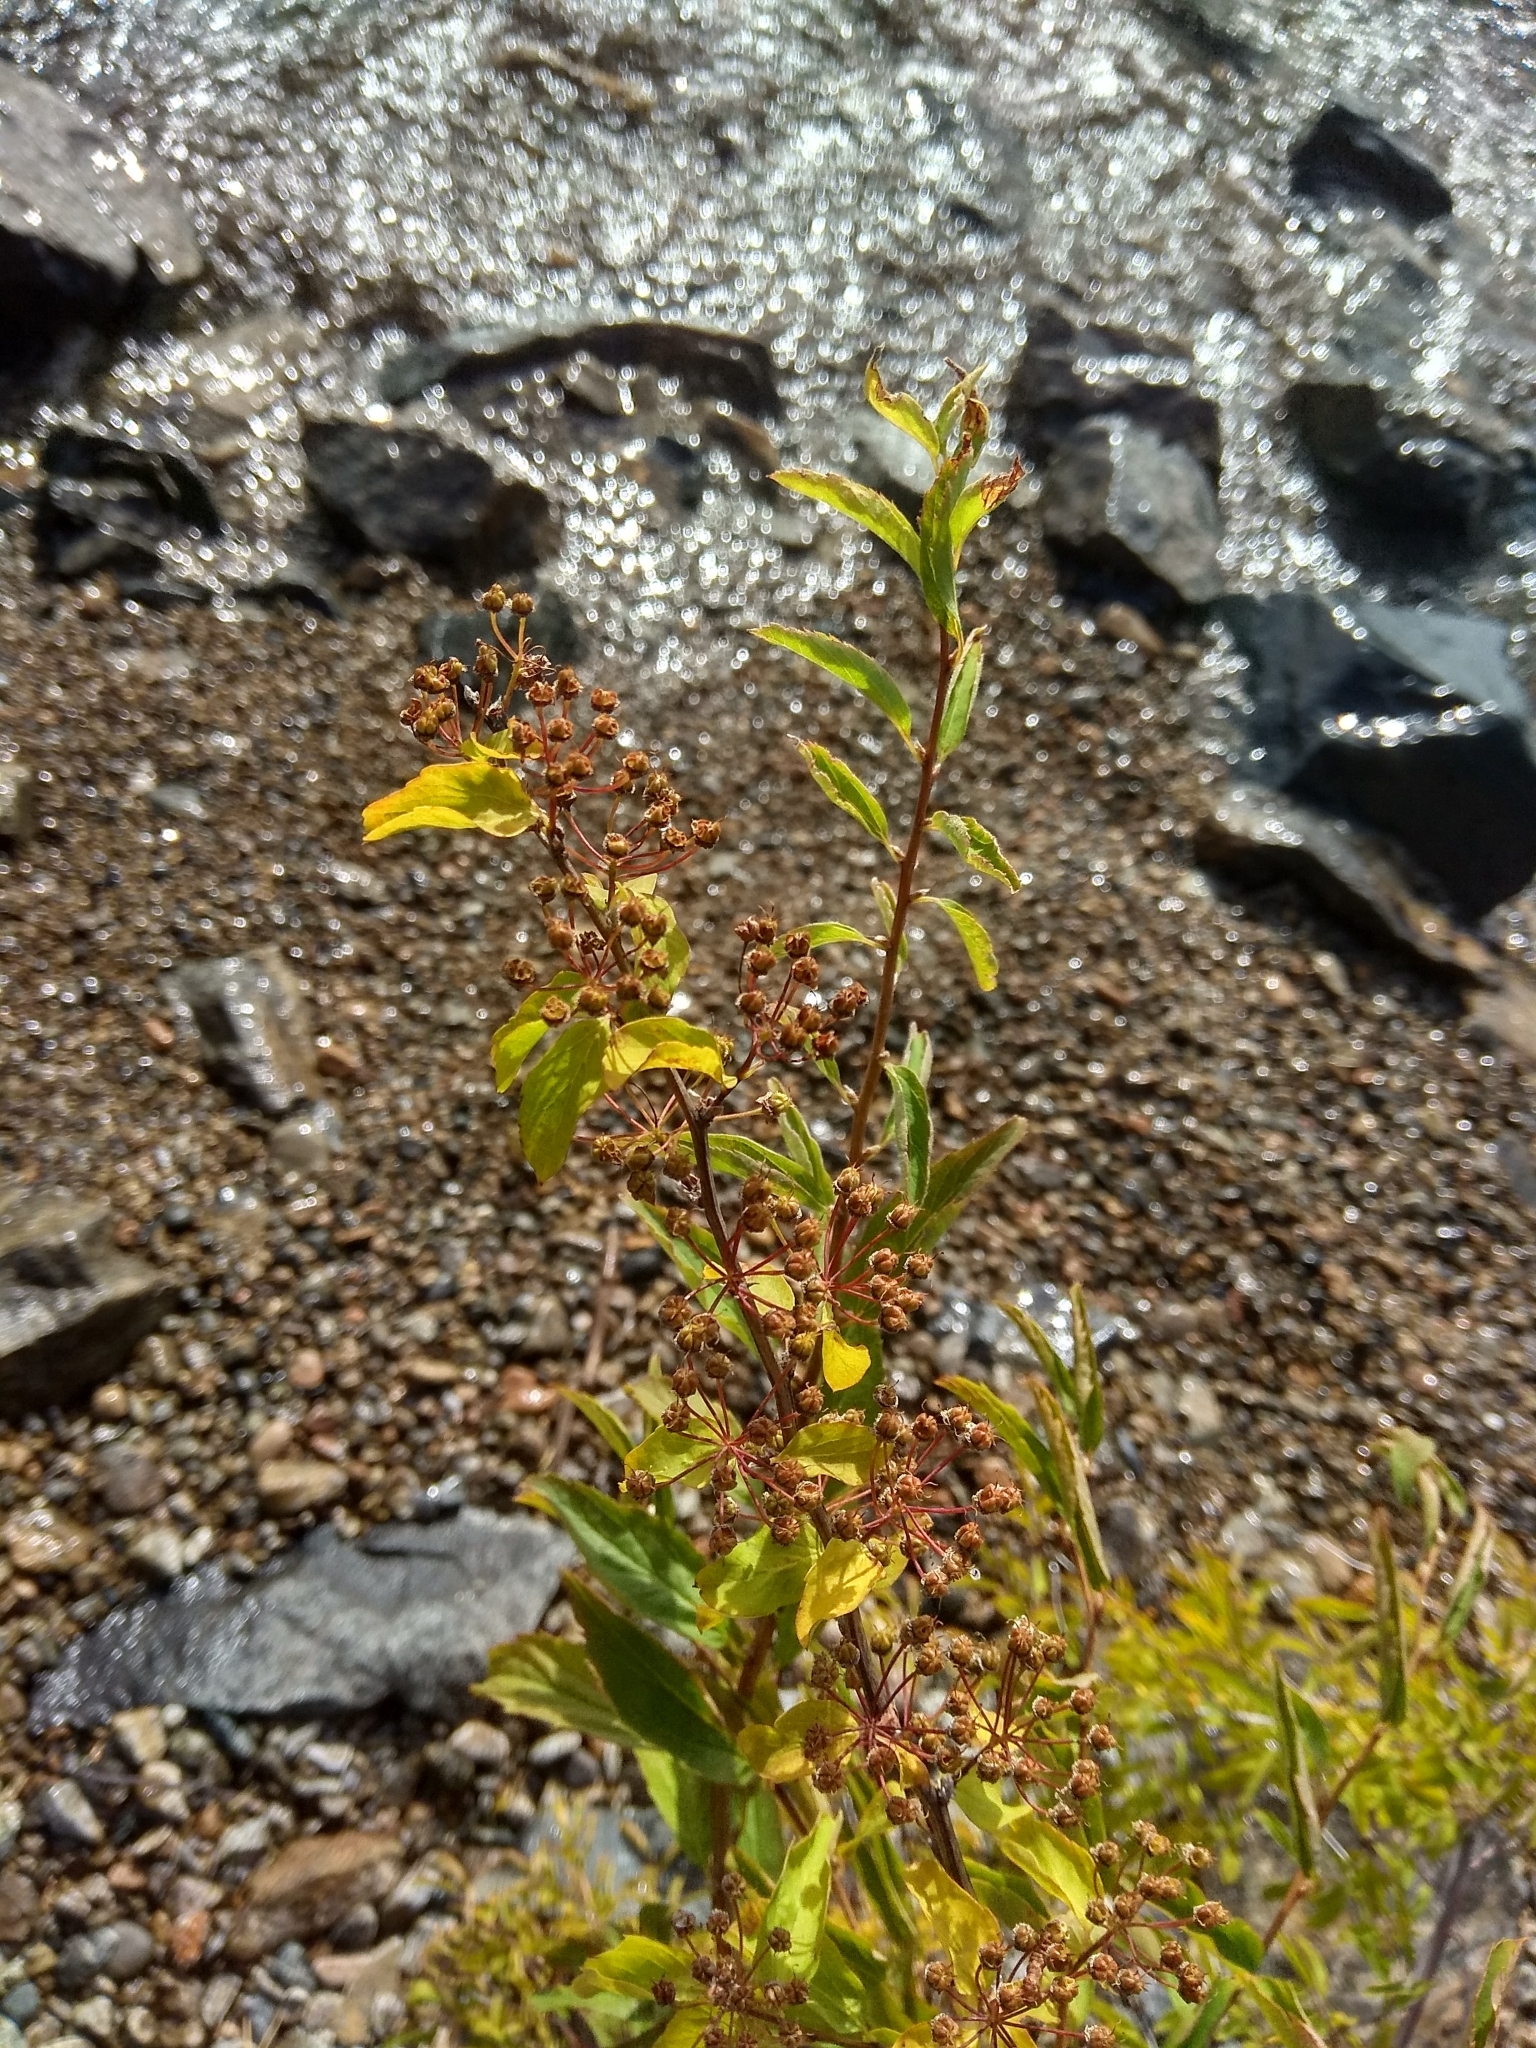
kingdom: Plantae
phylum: Tracheophyta
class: Magnoliopsida
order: Rosales
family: Rosaceae
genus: Spiraea
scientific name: Spiraea media
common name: Russian spiraea
